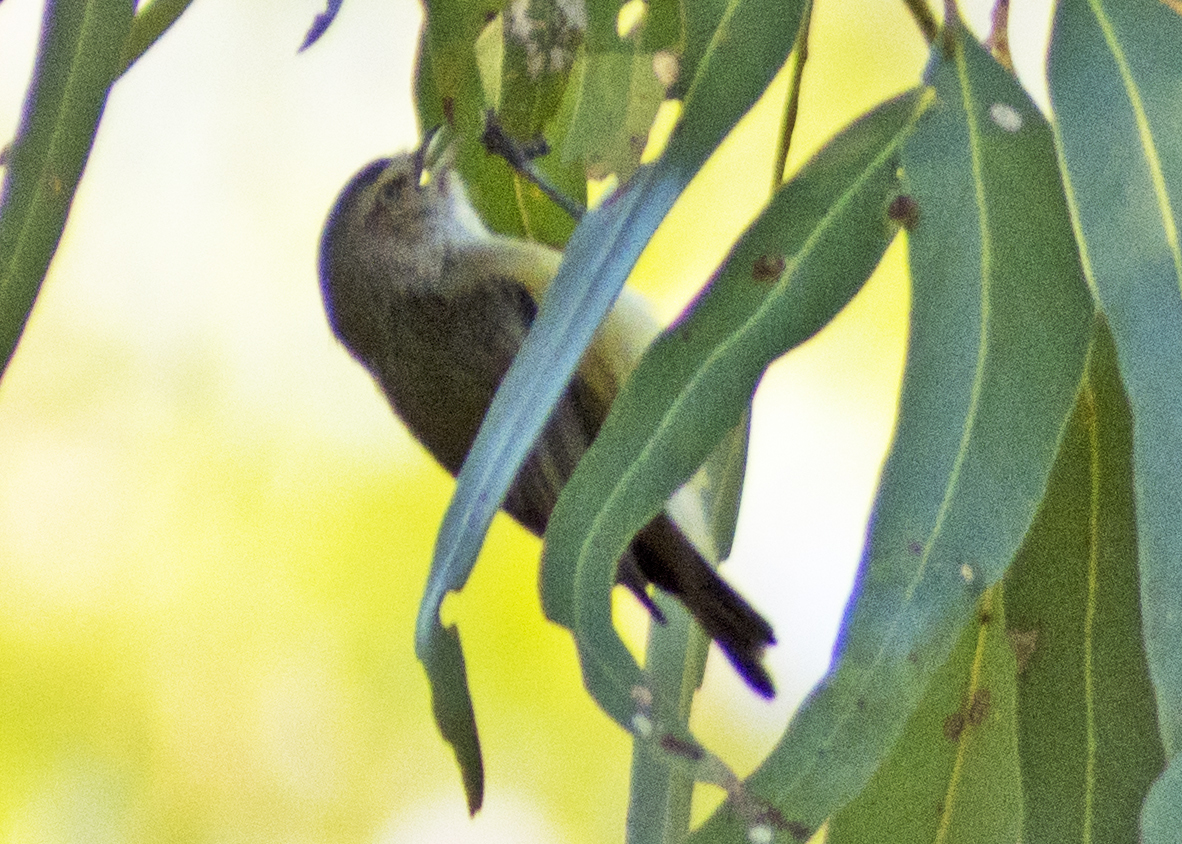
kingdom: Animalia
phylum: Chordata
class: Aves
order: Passeriformes
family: Acanthizidae
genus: Smicrornis
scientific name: Smicrornis brevirostris
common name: Weebill
